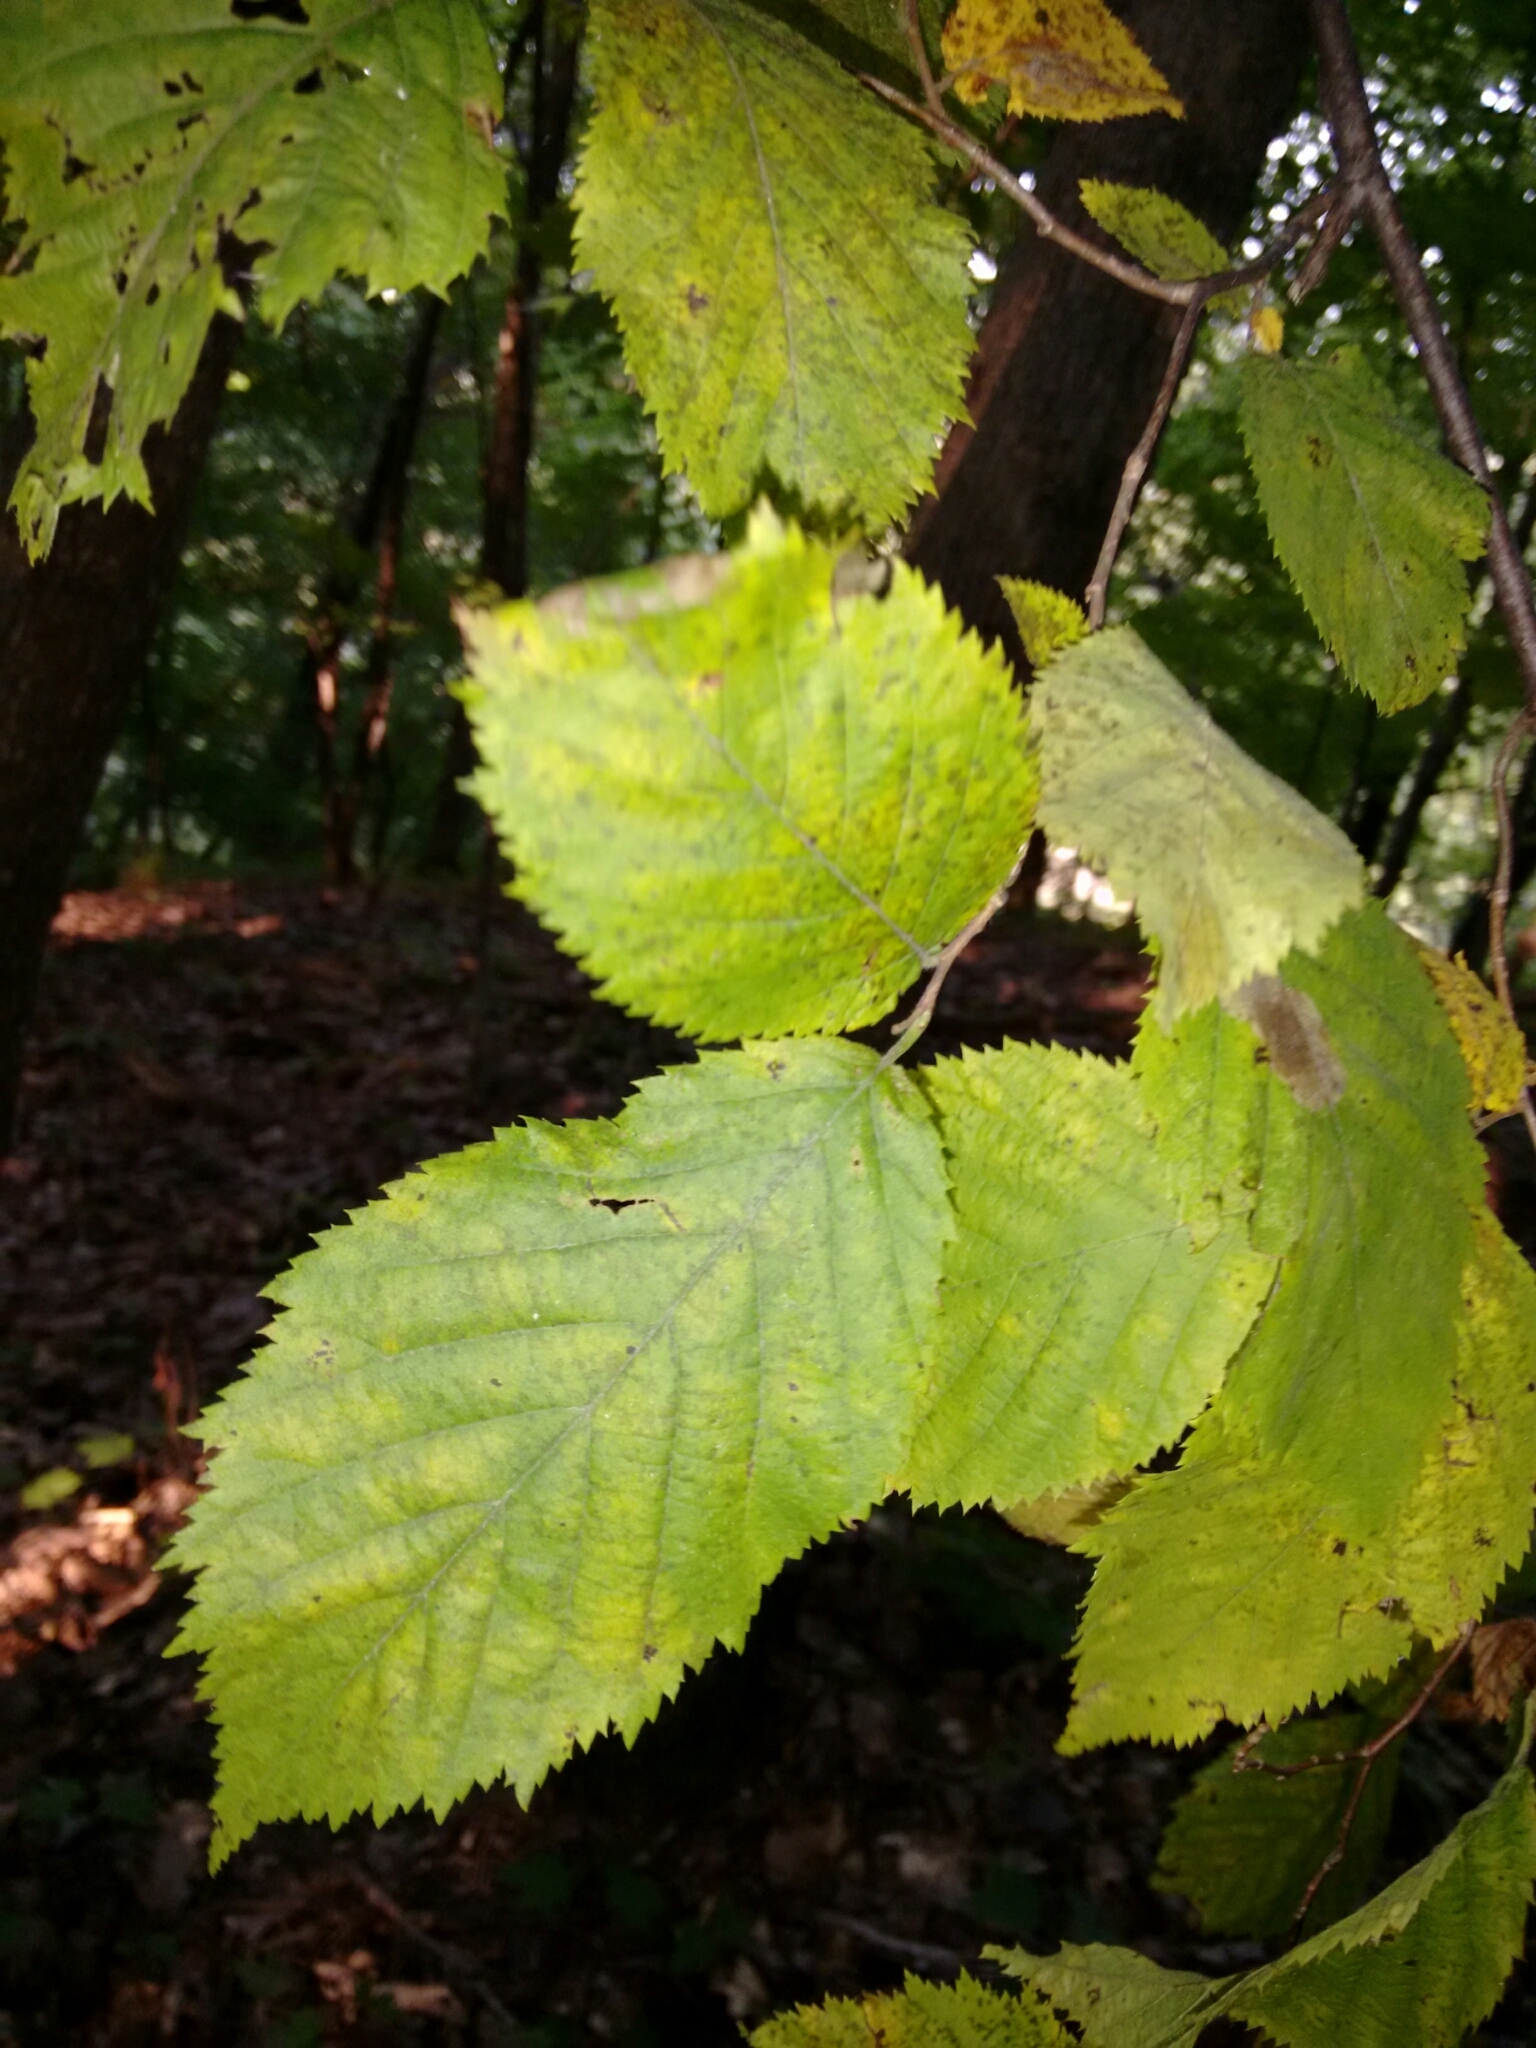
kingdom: Plantae
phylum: Tracheophyta
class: Magnoliopsida
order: Fagales
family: Betulaceae
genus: Carpinus
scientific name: Carpinus caroliniana
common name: American hornbeam
